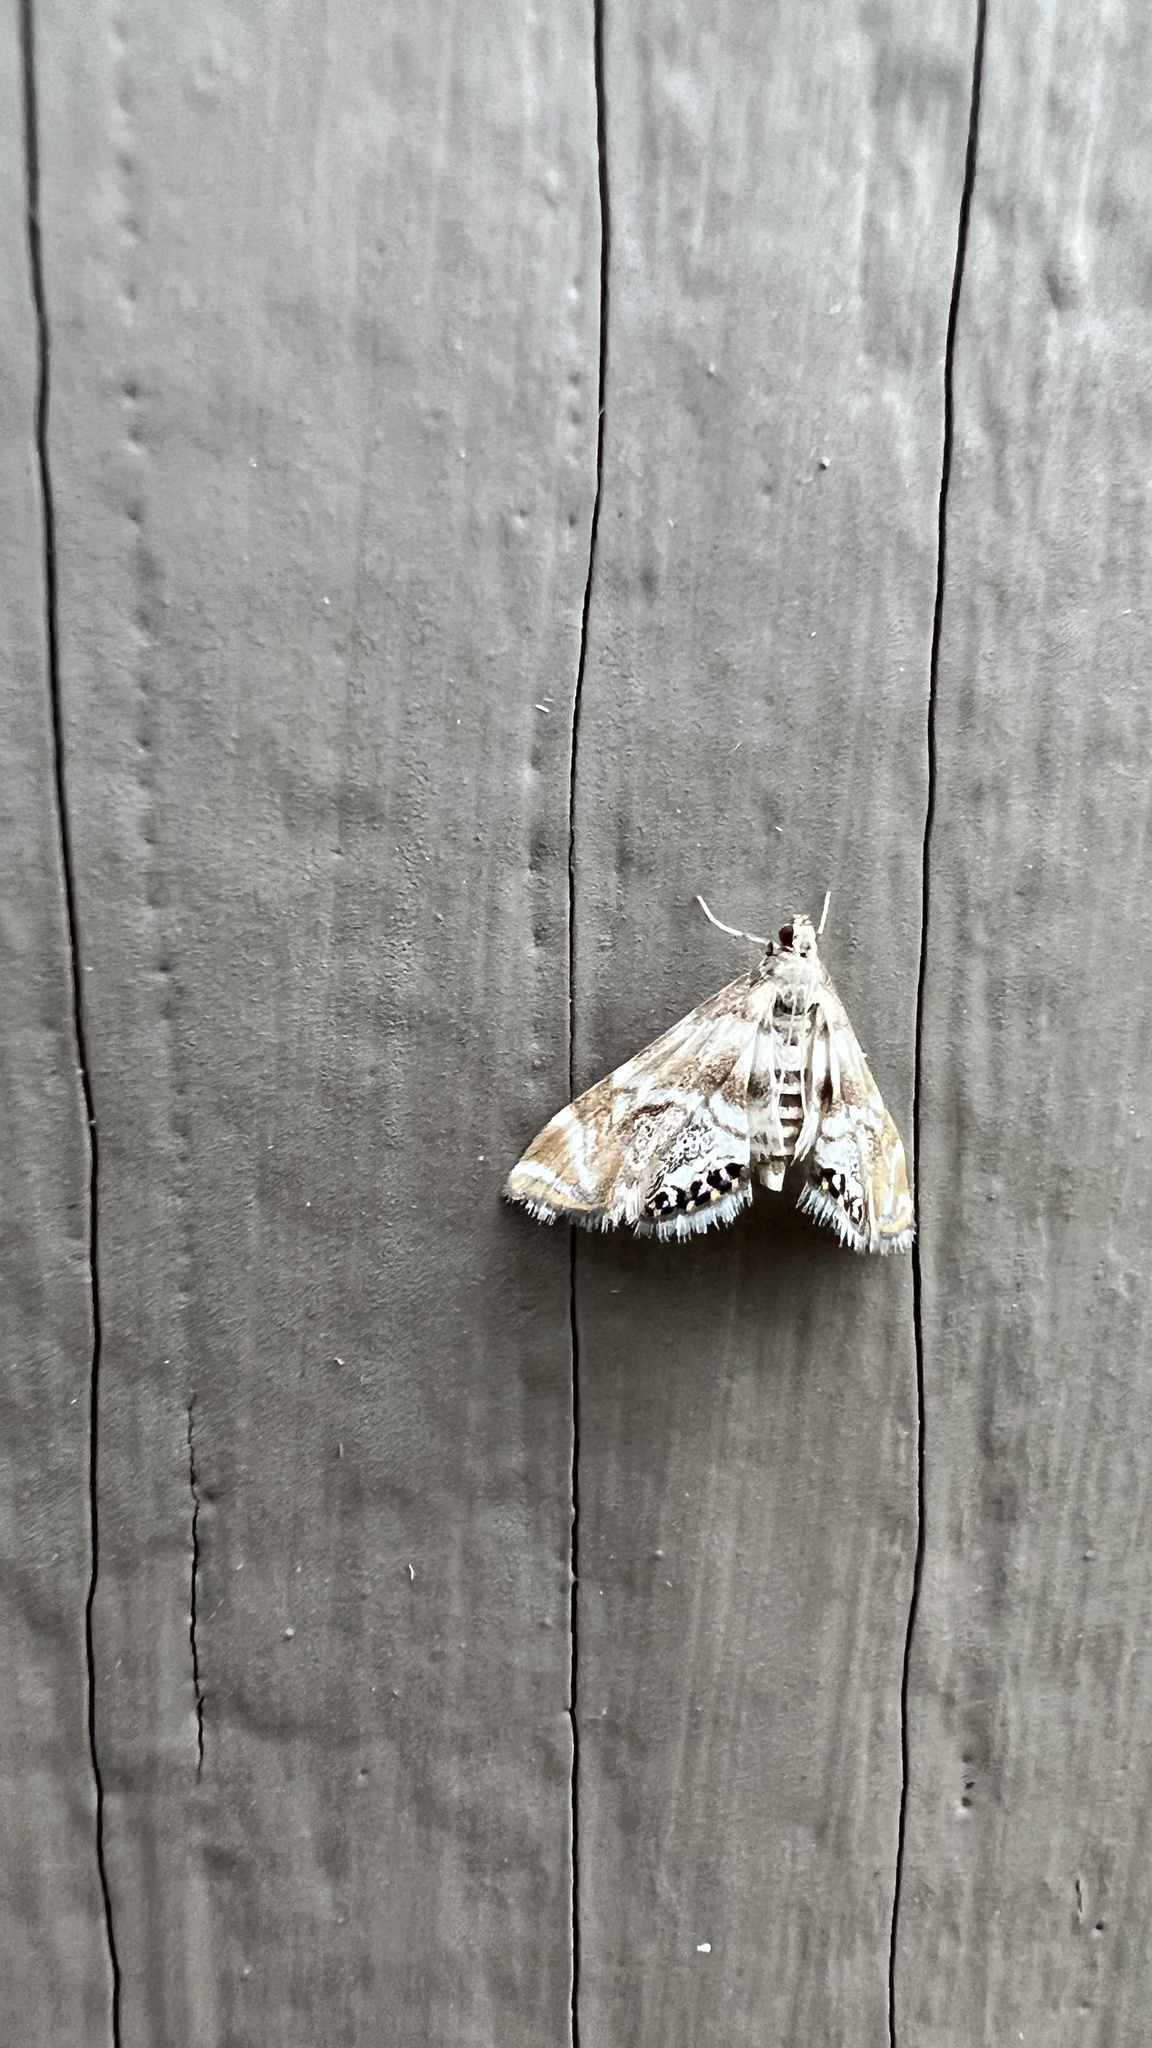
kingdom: Animalia
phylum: Arthropoda
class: Insecta
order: Lepidoptera
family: Crambidae
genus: Petrophila
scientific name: Petrophila canadensis
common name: Canadian petrophila
